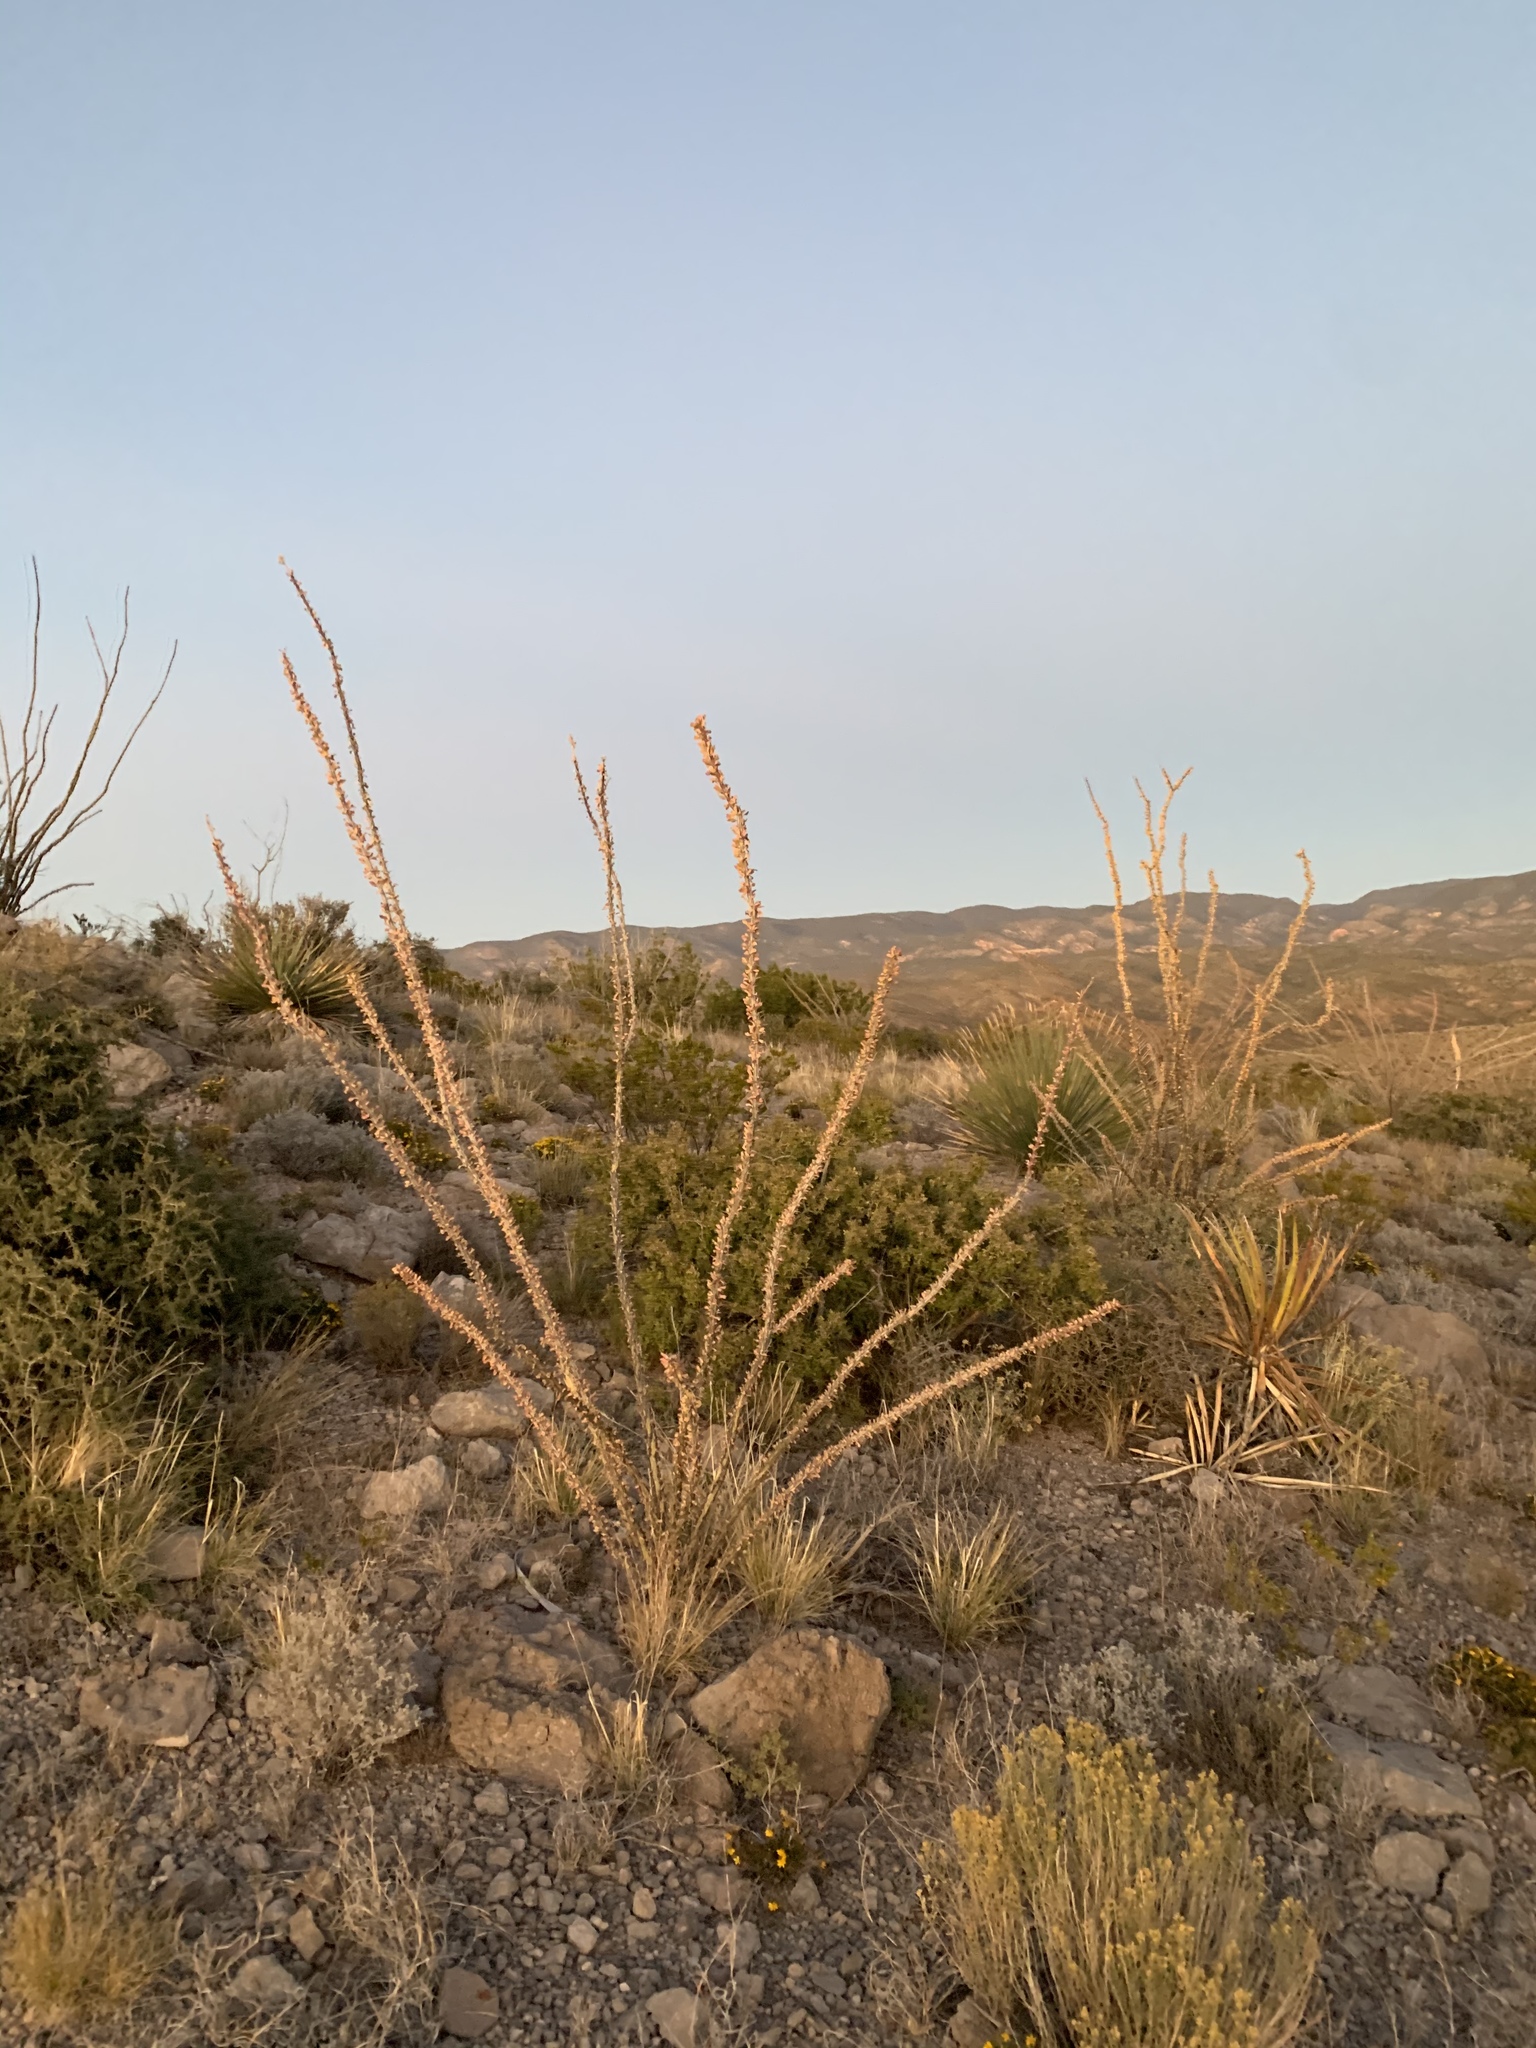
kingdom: Plantae
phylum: Tracheophyta
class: Magnoliopsida
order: Ericales
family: Fouquieriaceae
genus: Fouquieria
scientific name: Fouquieria splendens
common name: Vine-cactus
